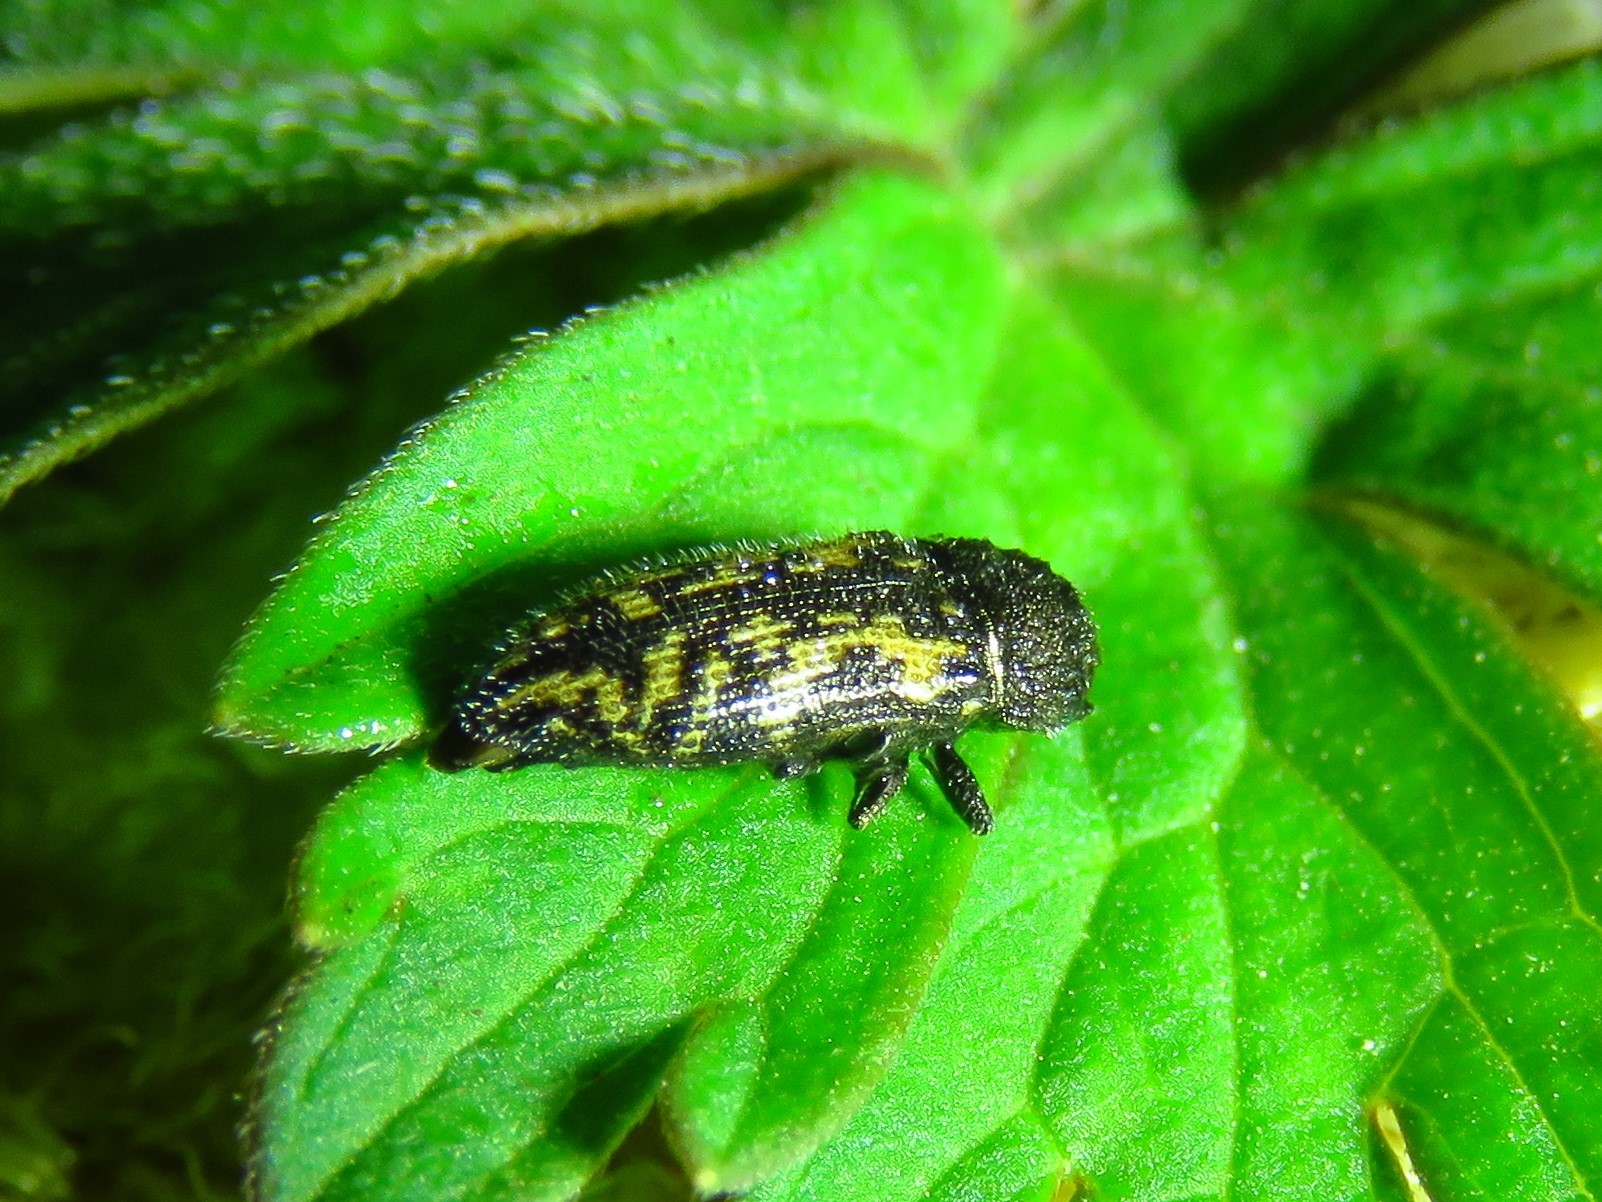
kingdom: Animalia
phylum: Arthropoda
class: Insecta
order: Coleoptera
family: Buprestidae
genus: Acmaeodera
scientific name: Acmaeodera neglecta
